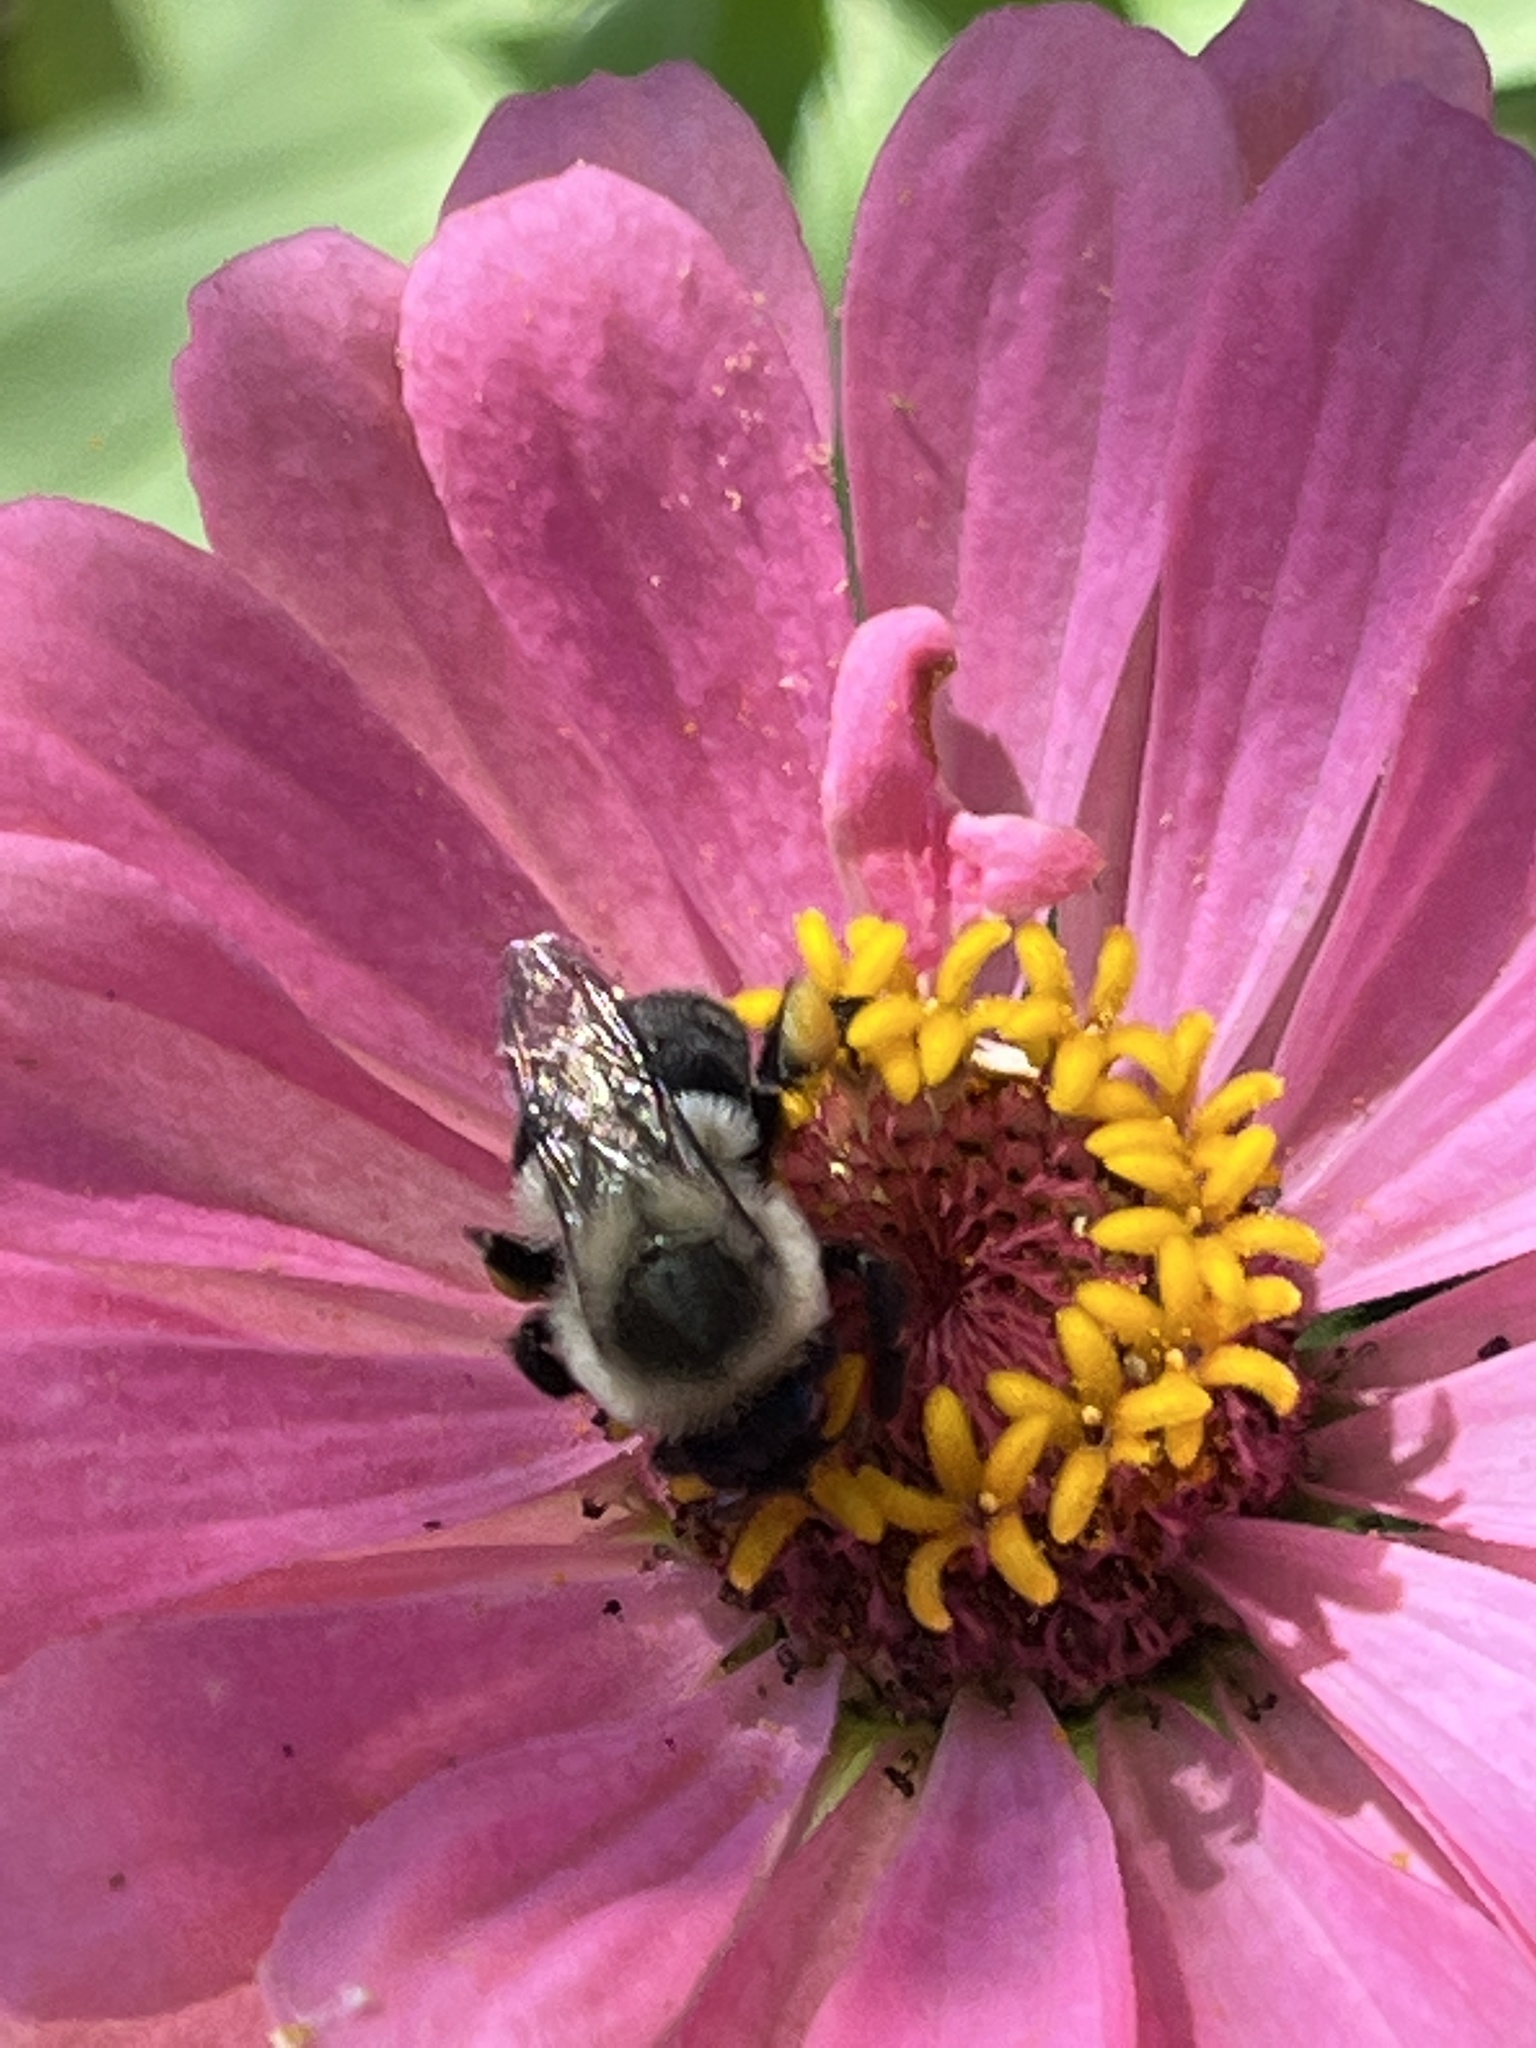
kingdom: Animalia
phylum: Arthropoda
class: Insecta
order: Hymenoptera
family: Apidae
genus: Bombus
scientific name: Bombus impatiens
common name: Common eastern bumble bee
